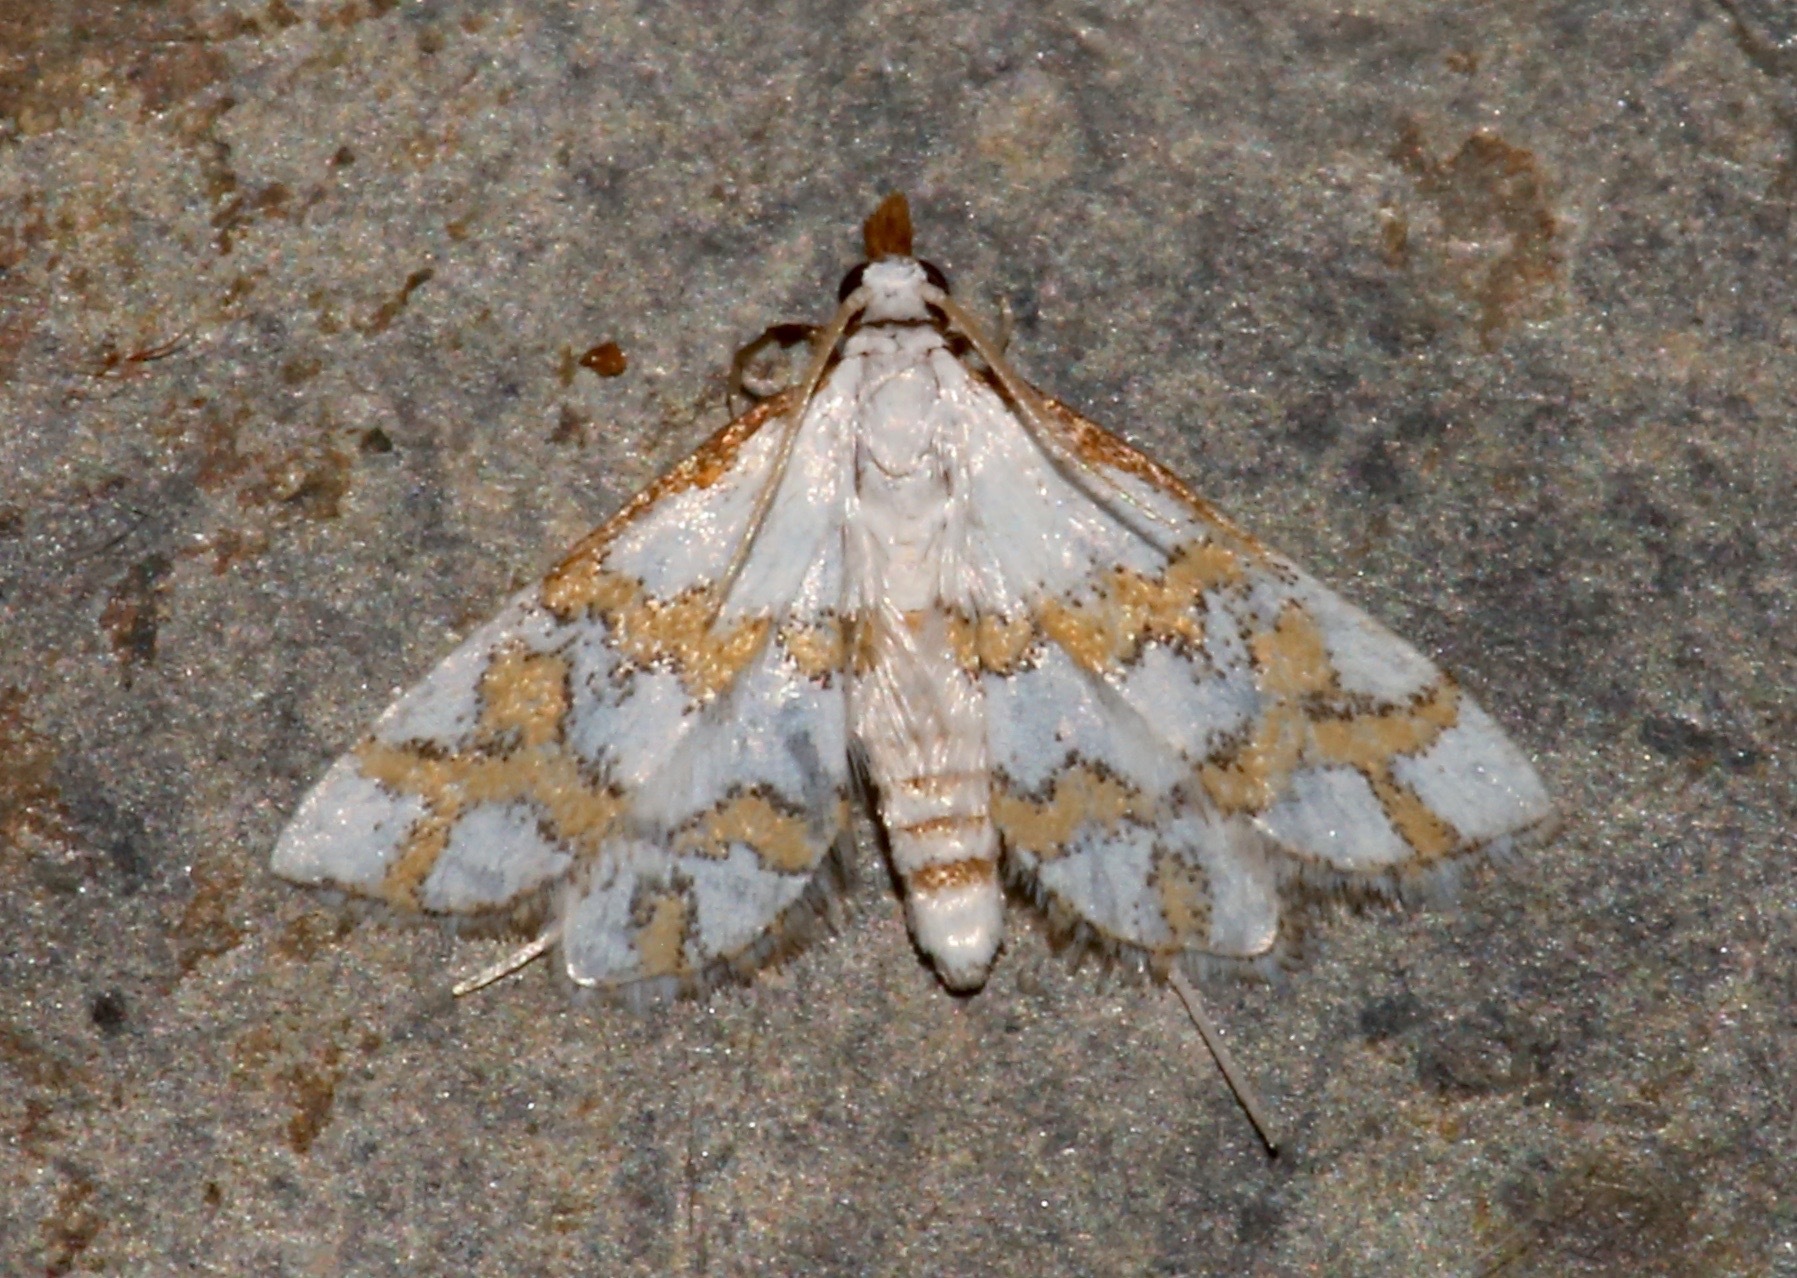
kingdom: Animalia
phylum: Arthropoda
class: Insecta
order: Lepidoptera
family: Crambidae
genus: Leptosteges
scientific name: Leptosteges
